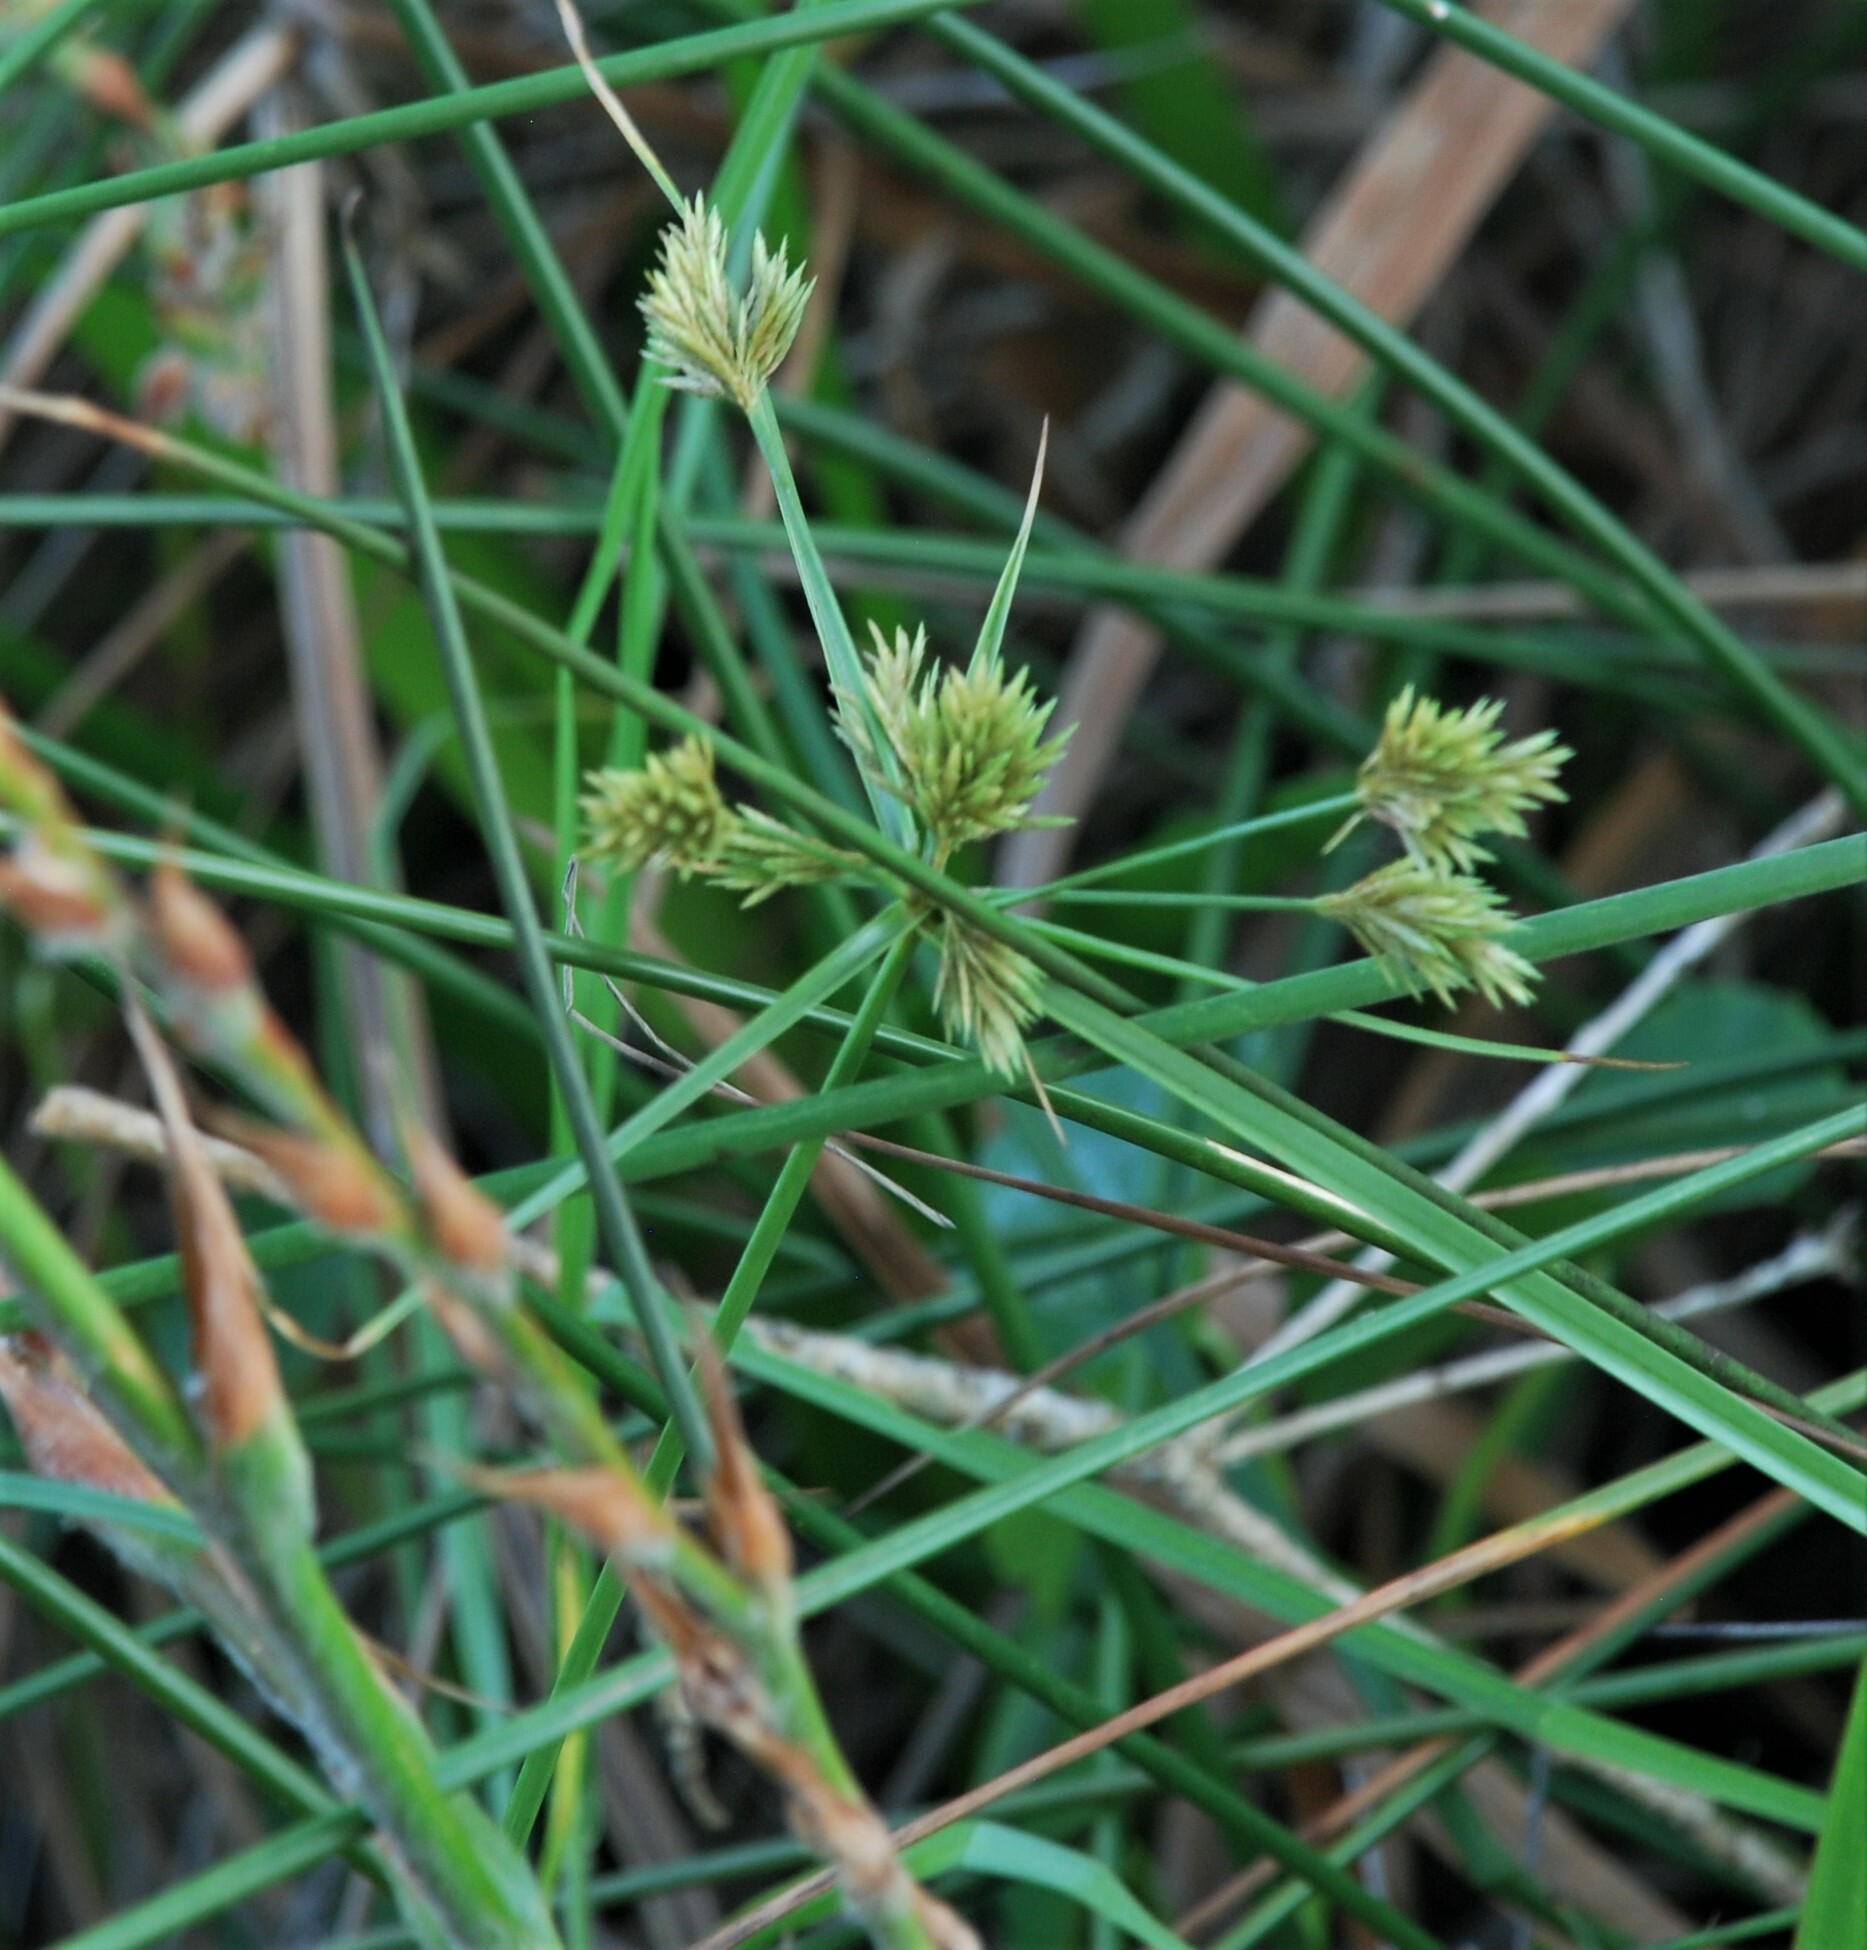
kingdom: Plantae
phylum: Tracheophyta
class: Liliopsida
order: Poales
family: Cyperaceae
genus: Cyperus
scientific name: Cyperus polystachyos
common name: Bunchy flat sedge
